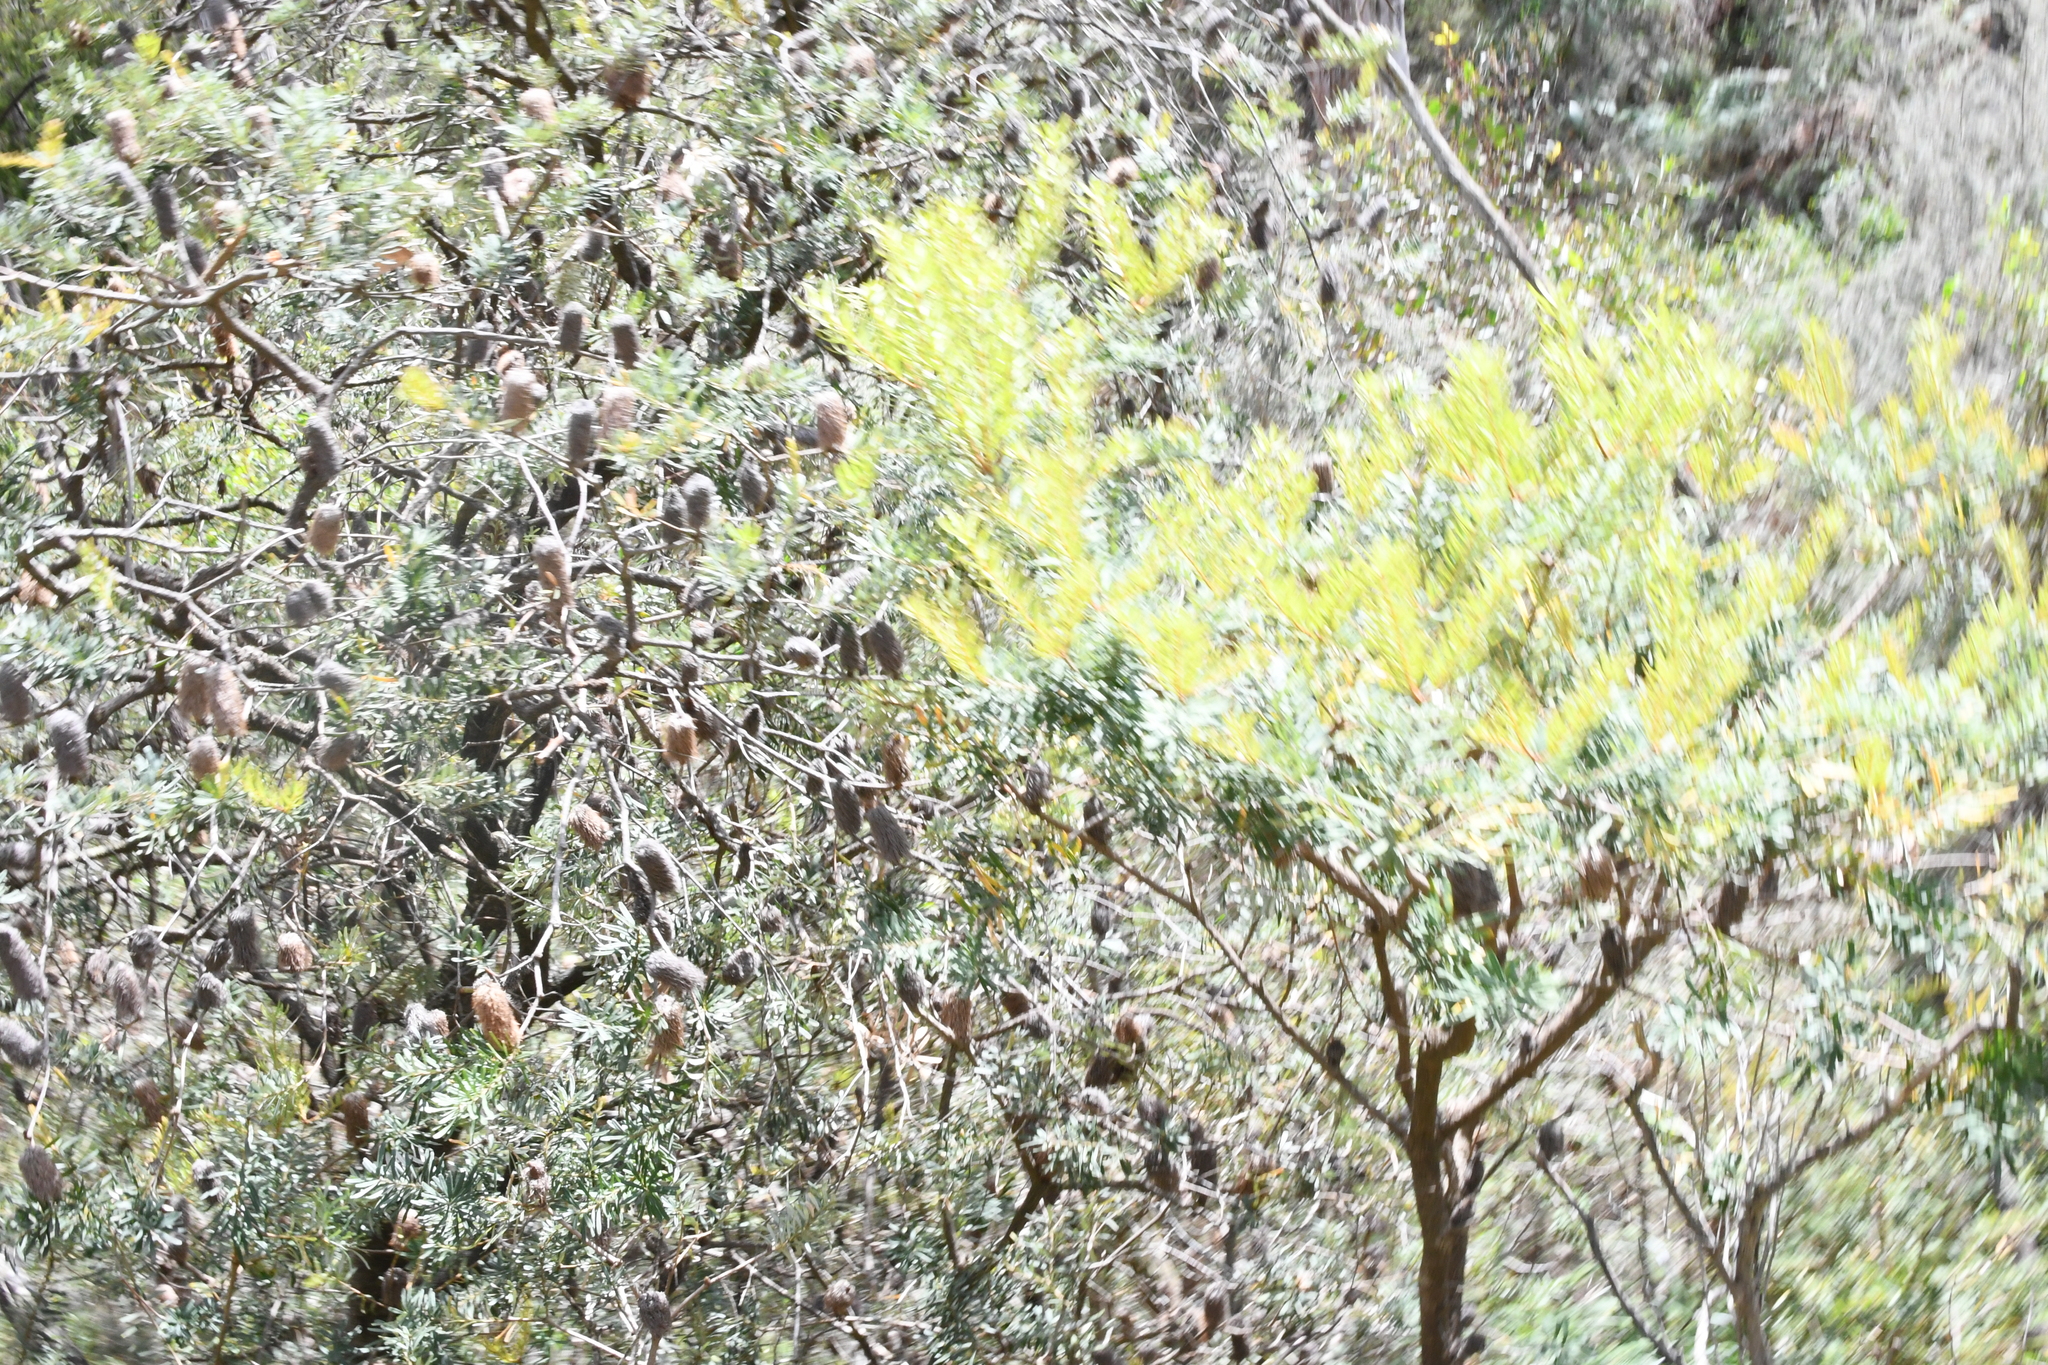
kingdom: Plantae
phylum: Tracheophyta
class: Magnoliopsida
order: Proteales
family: Proteaceae
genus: Banksia
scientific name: Banksia marginata
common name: Silver banksia
